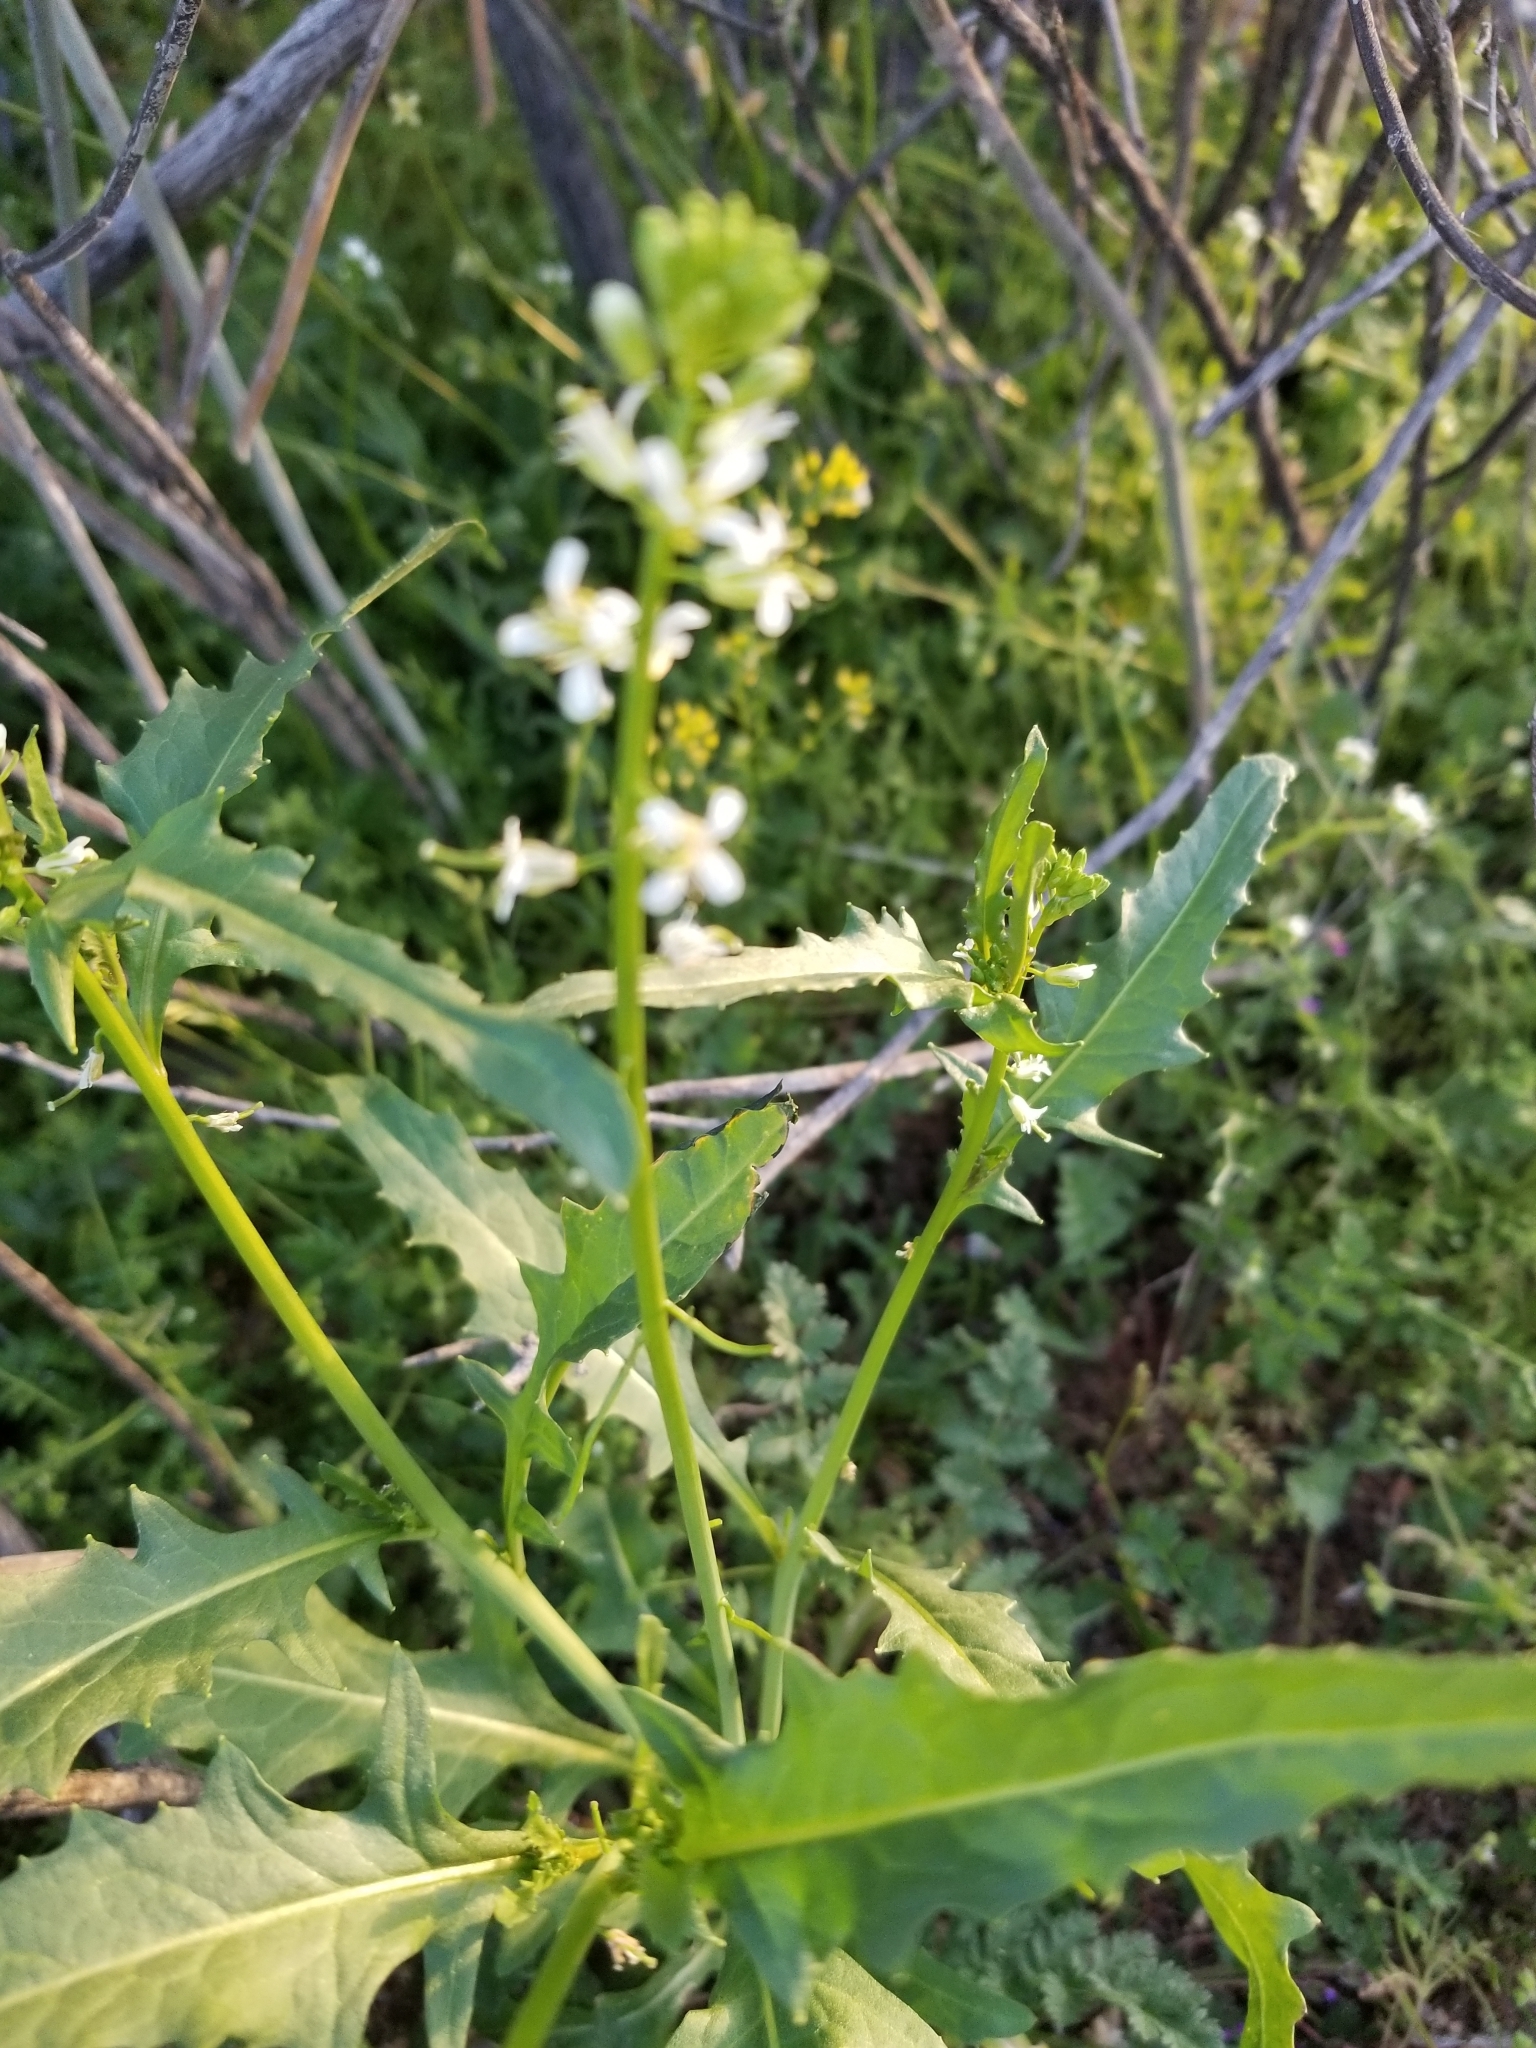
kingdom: Plantae
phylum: Tracheophyta
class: Magnoliopsida
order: Brassicales
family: Brassicaceae
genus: Streptanthus
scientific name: Streptanthus lasiophyllus
